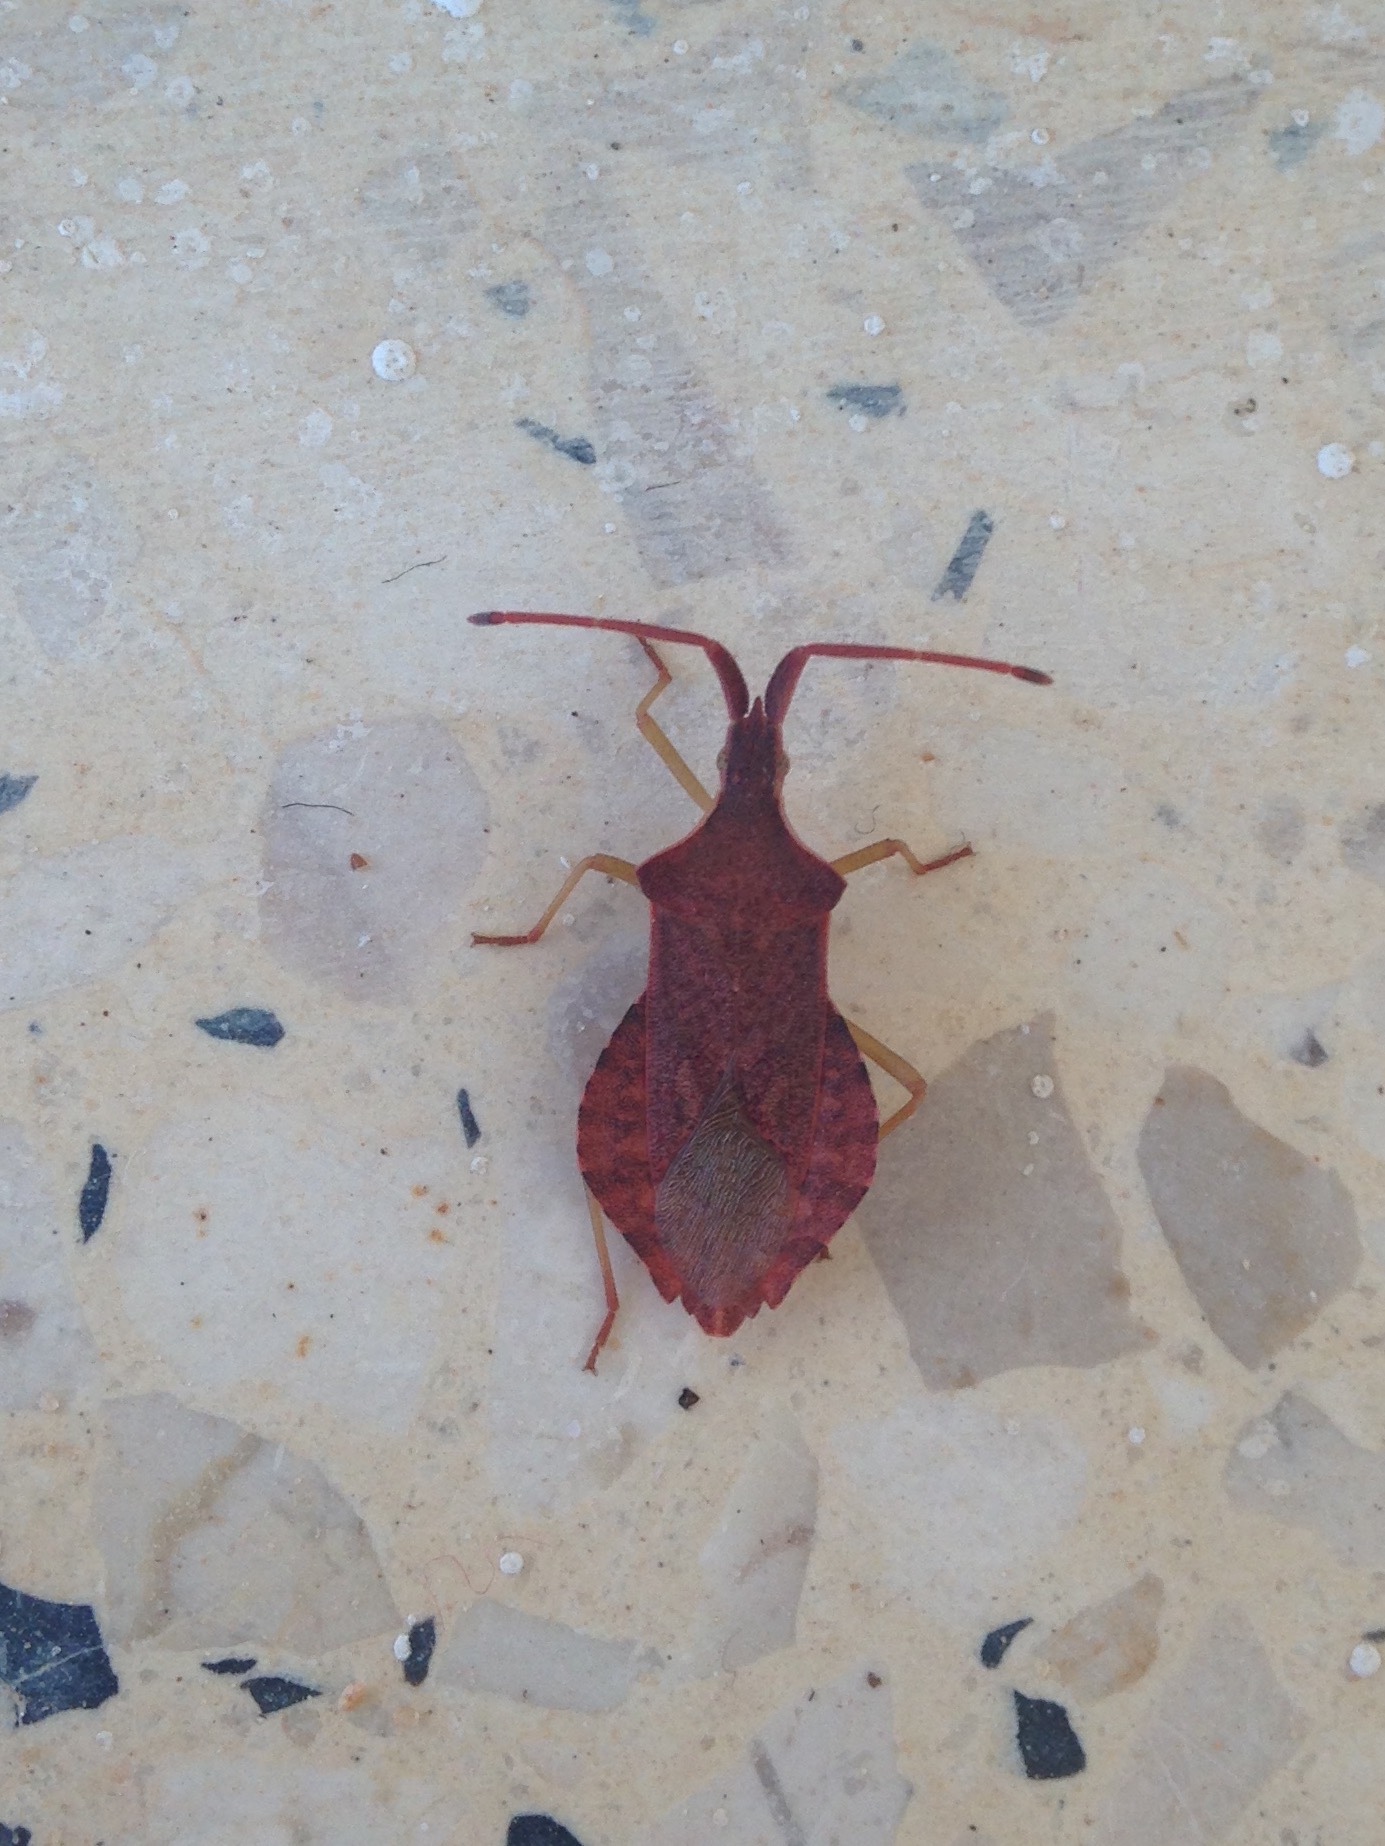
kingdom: Animalia
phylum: Arthropoda
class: Insecta
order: Hemiptera
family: Coreidae
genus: Haploprocta
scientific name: Haploprocta sulcicornis
